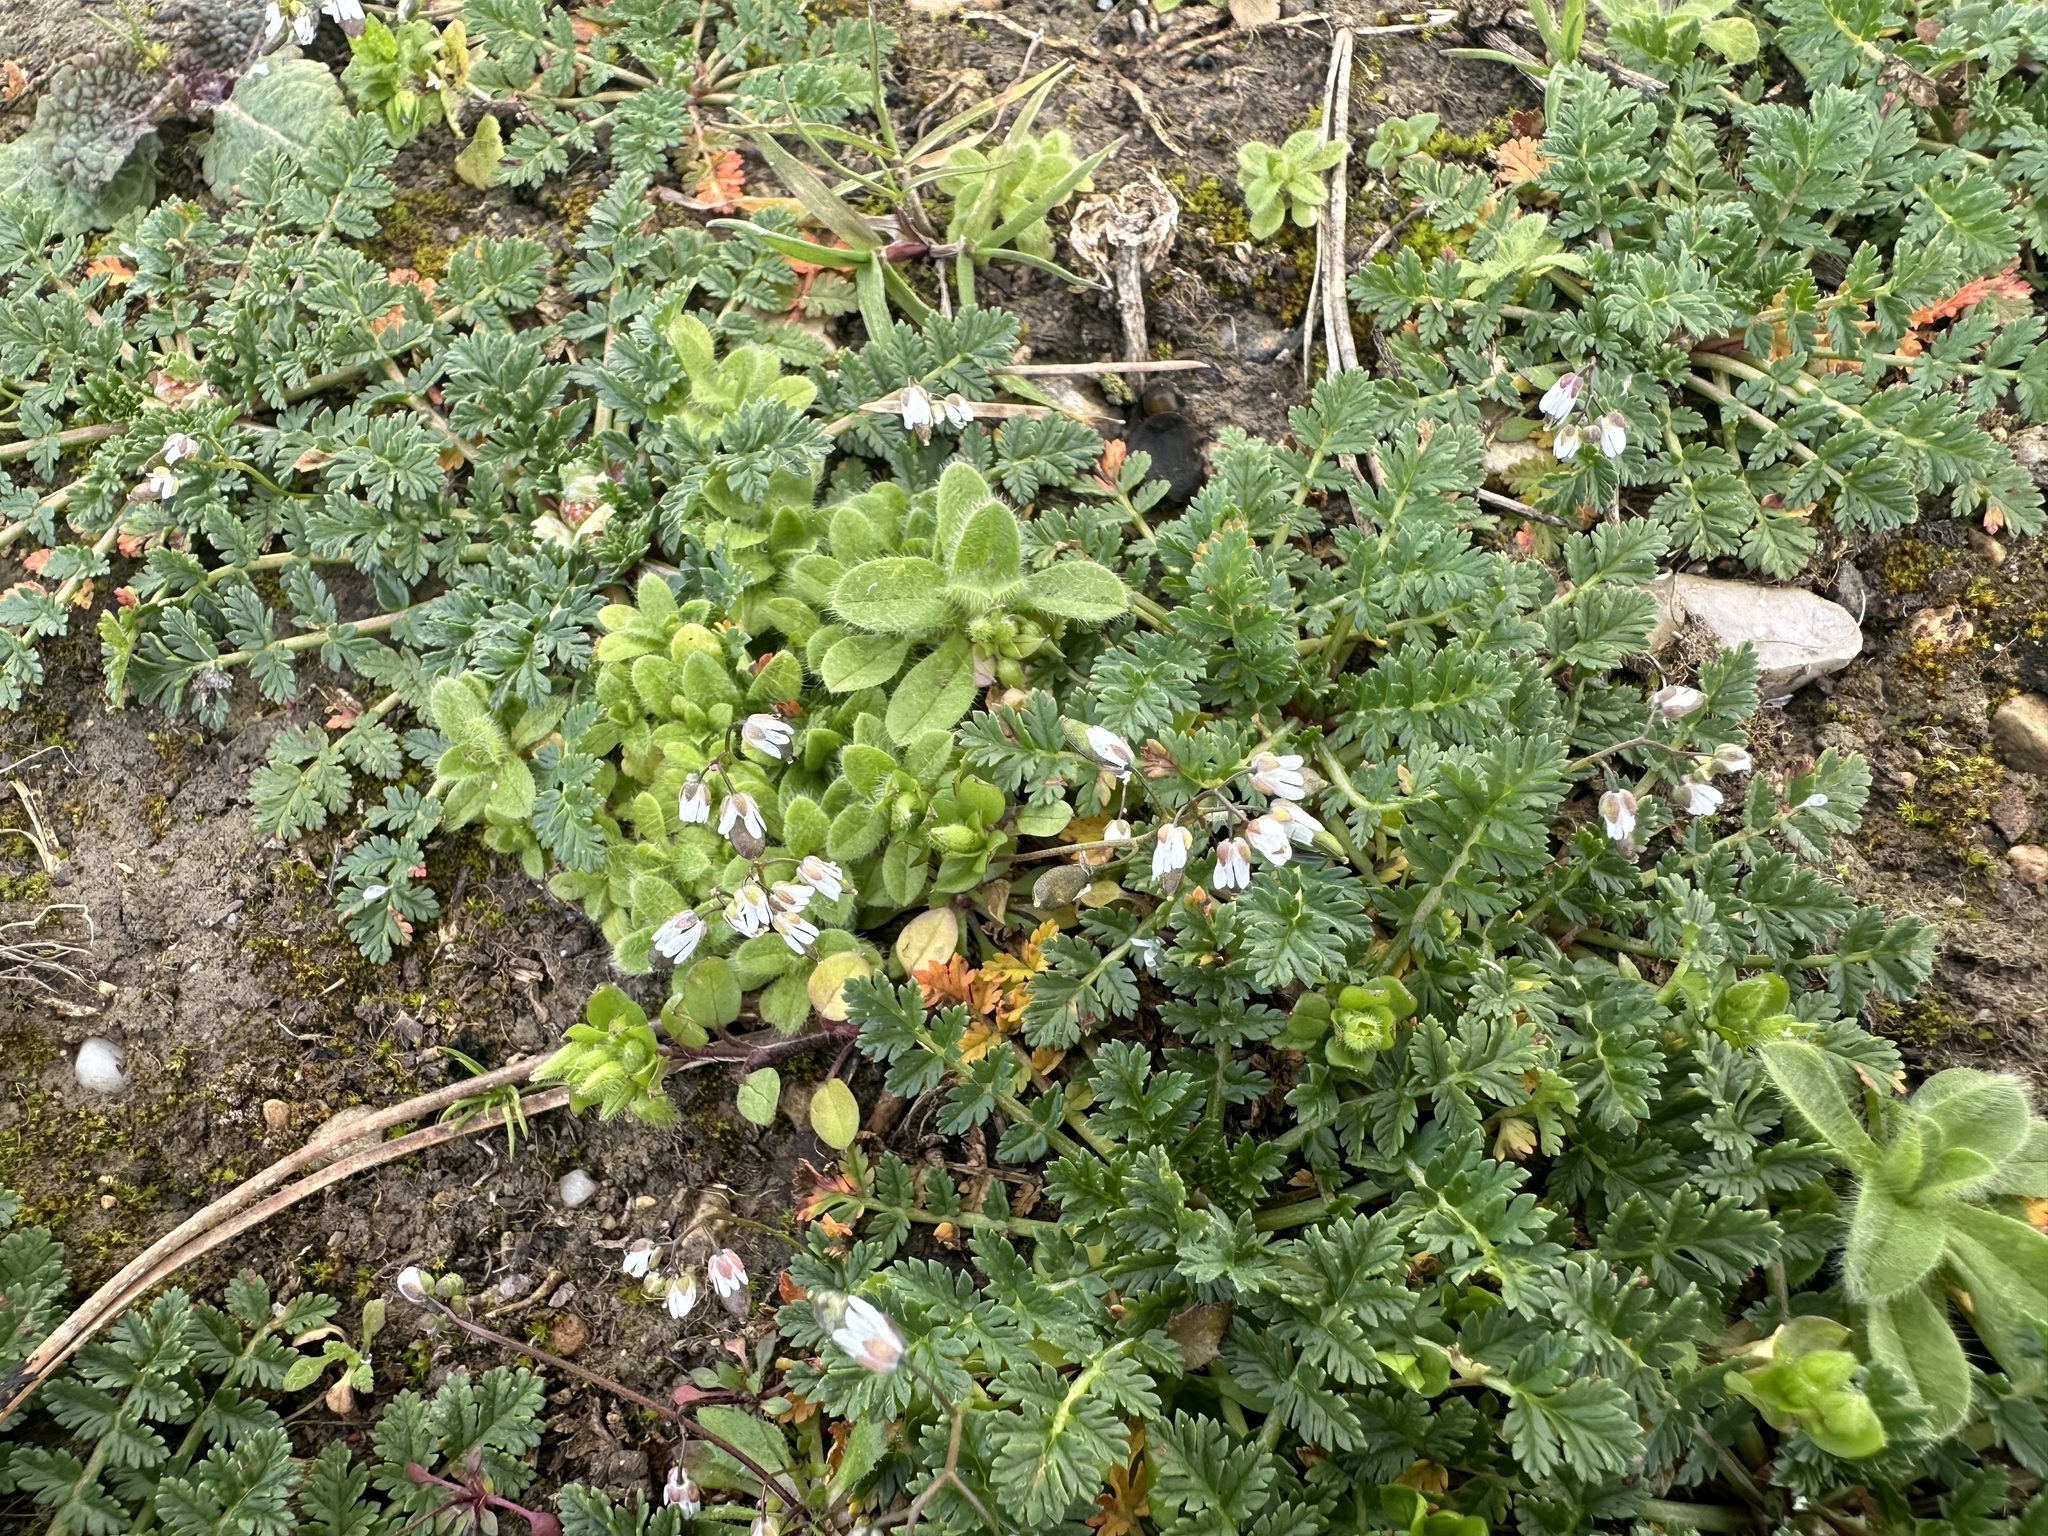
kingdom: Plantae
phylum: Tracheophyta
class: Magnoliopsida
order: Brassicales
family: Brassicaceae
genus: Draba
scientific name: Draba verna
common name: Spring draba
